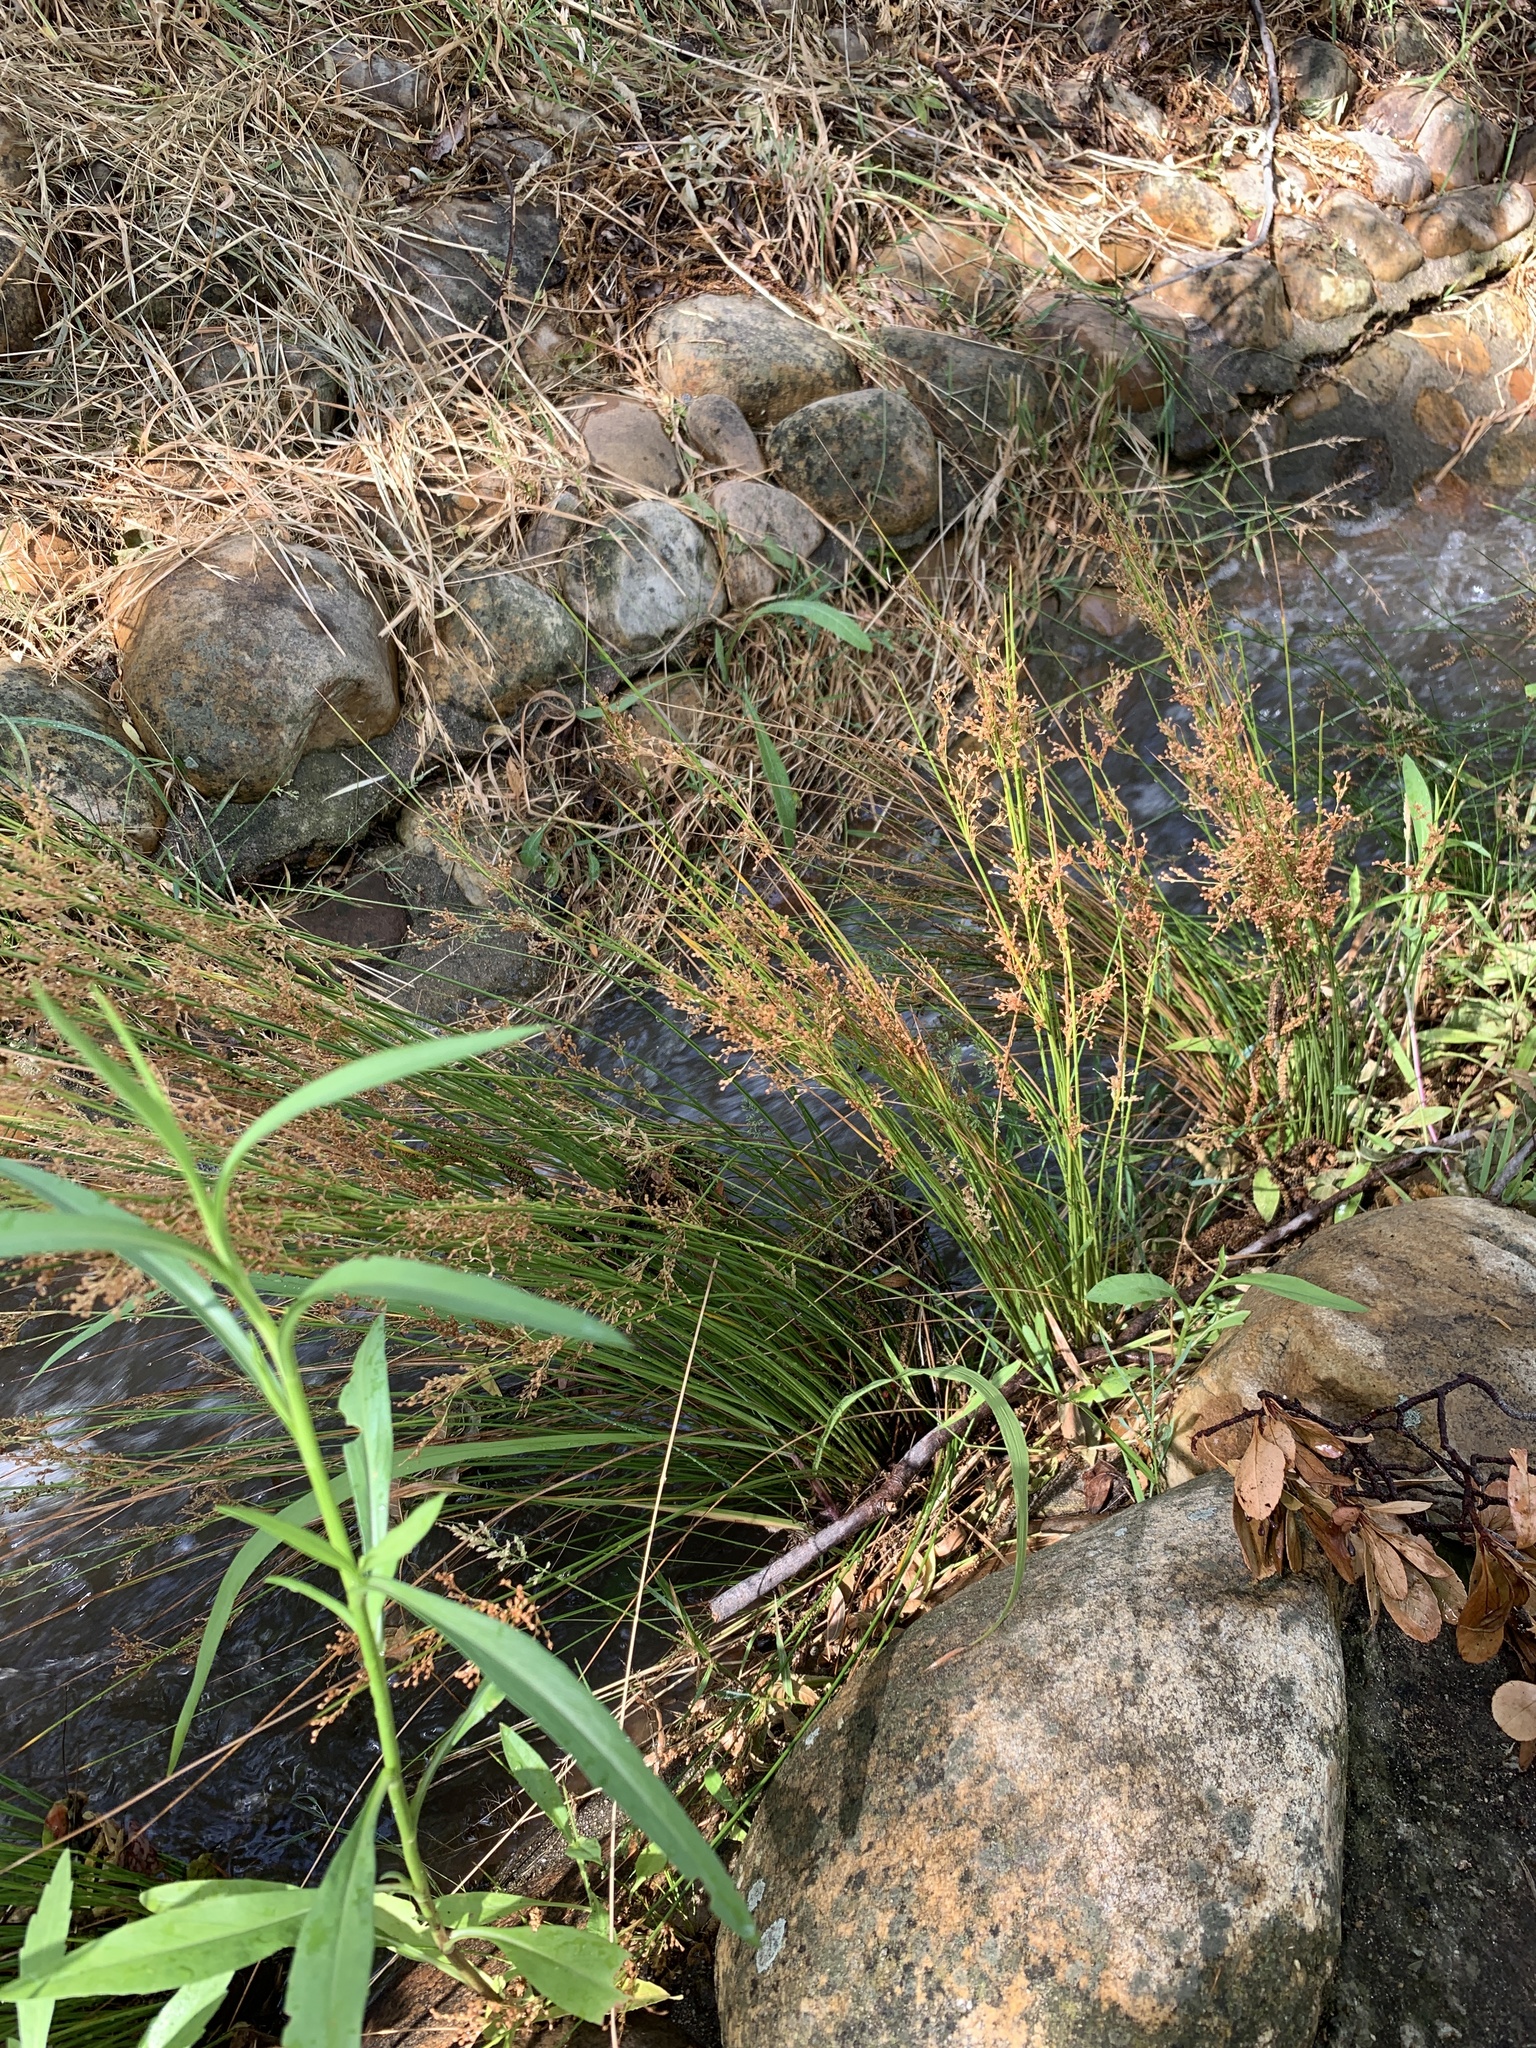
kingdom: Plantae
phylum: Tracheophyta
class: Liliopsida
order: Poales
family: Juncaceae
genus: Juncus
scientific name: Juncus effusus
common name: Soft rush
